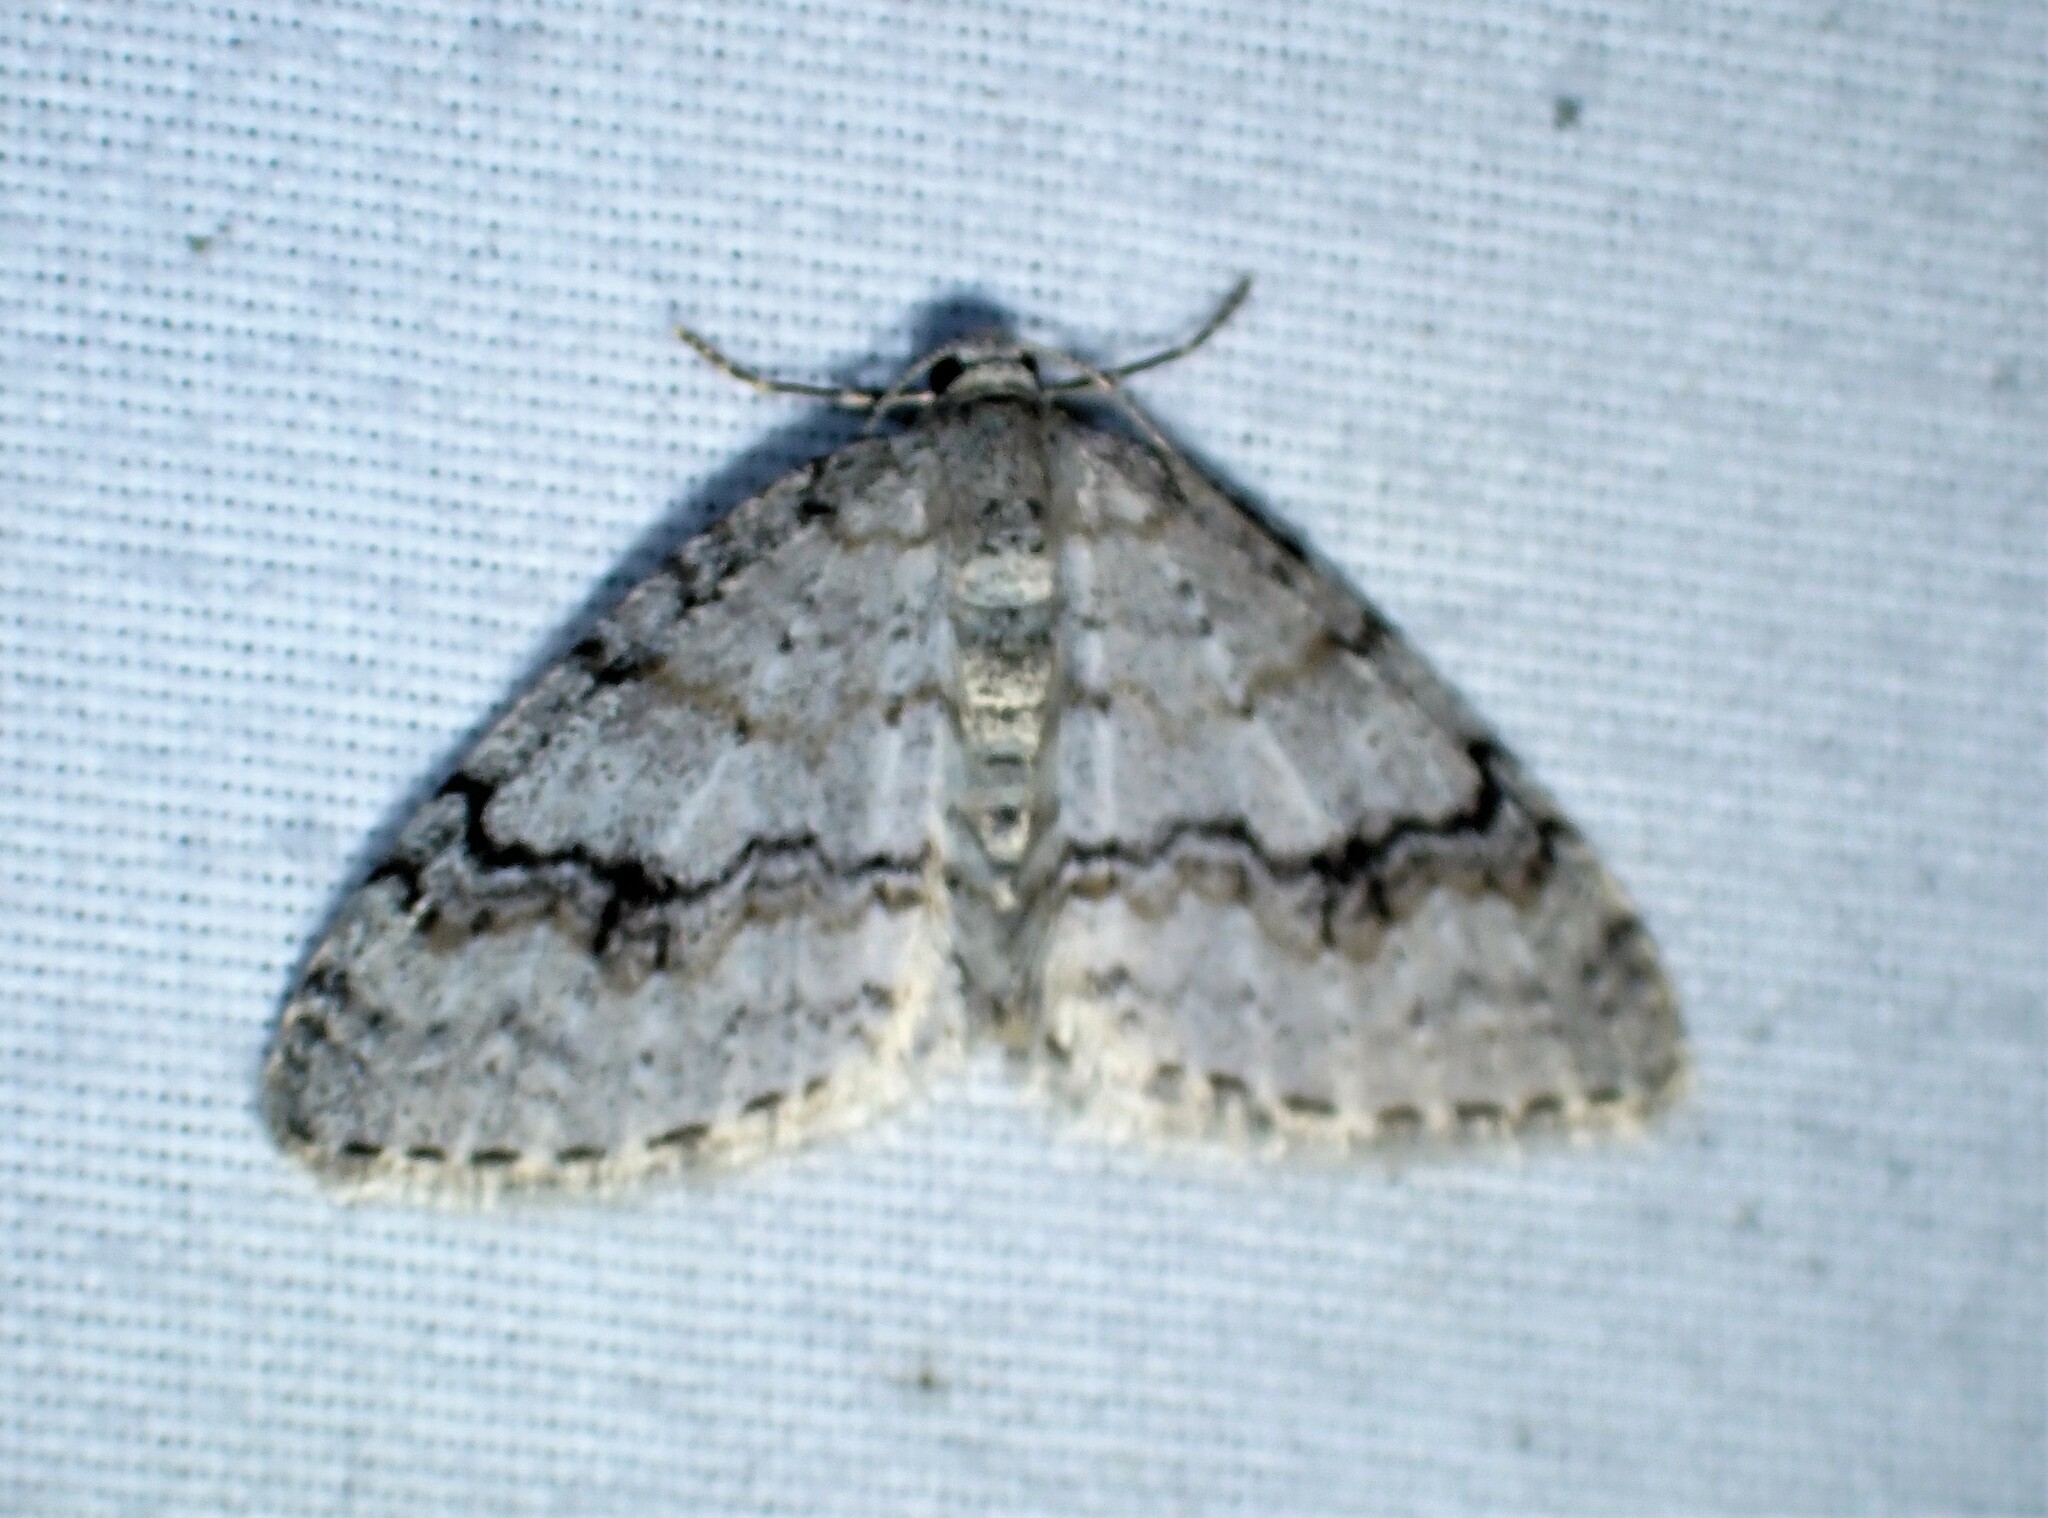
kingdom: Animalia
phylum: Arthropoda
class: Insecta
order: Lepidoptera
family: Geometridae
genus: Venusia
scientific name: Venusia comptaria
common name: Brown-shaded carpet
